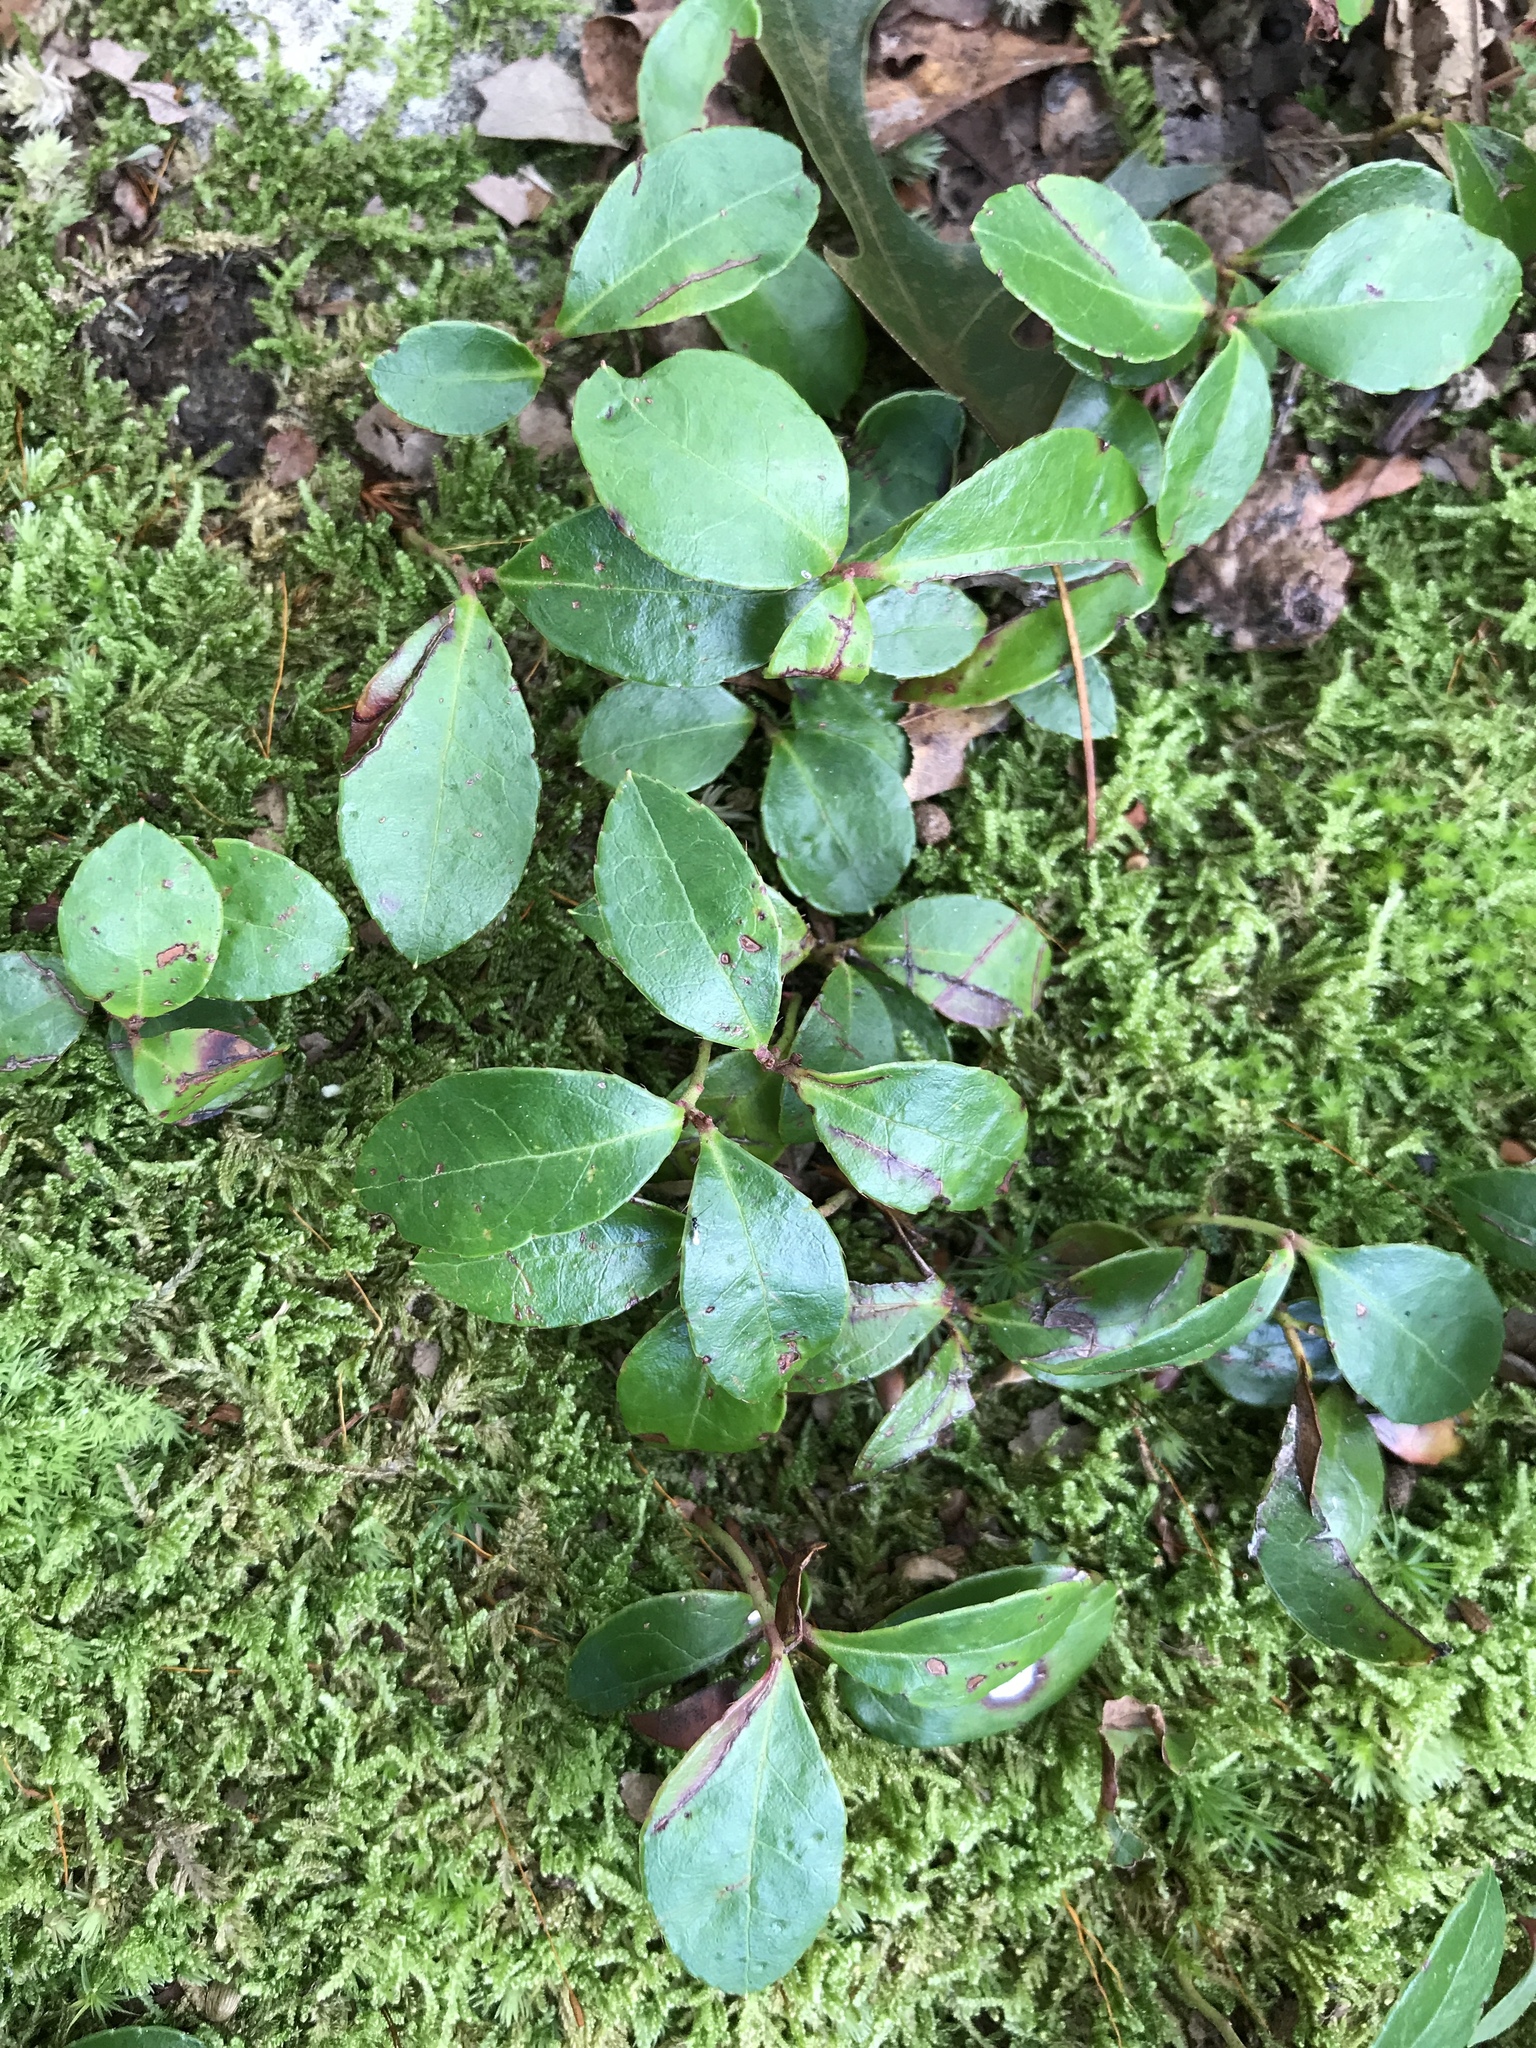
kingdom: Plantae
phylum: Tracheophyta
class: Magnoliopsida
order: Ericales
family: Ericaceae
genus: Gaultheria
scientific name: Gaultheria procumbens
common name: Checkerberry
